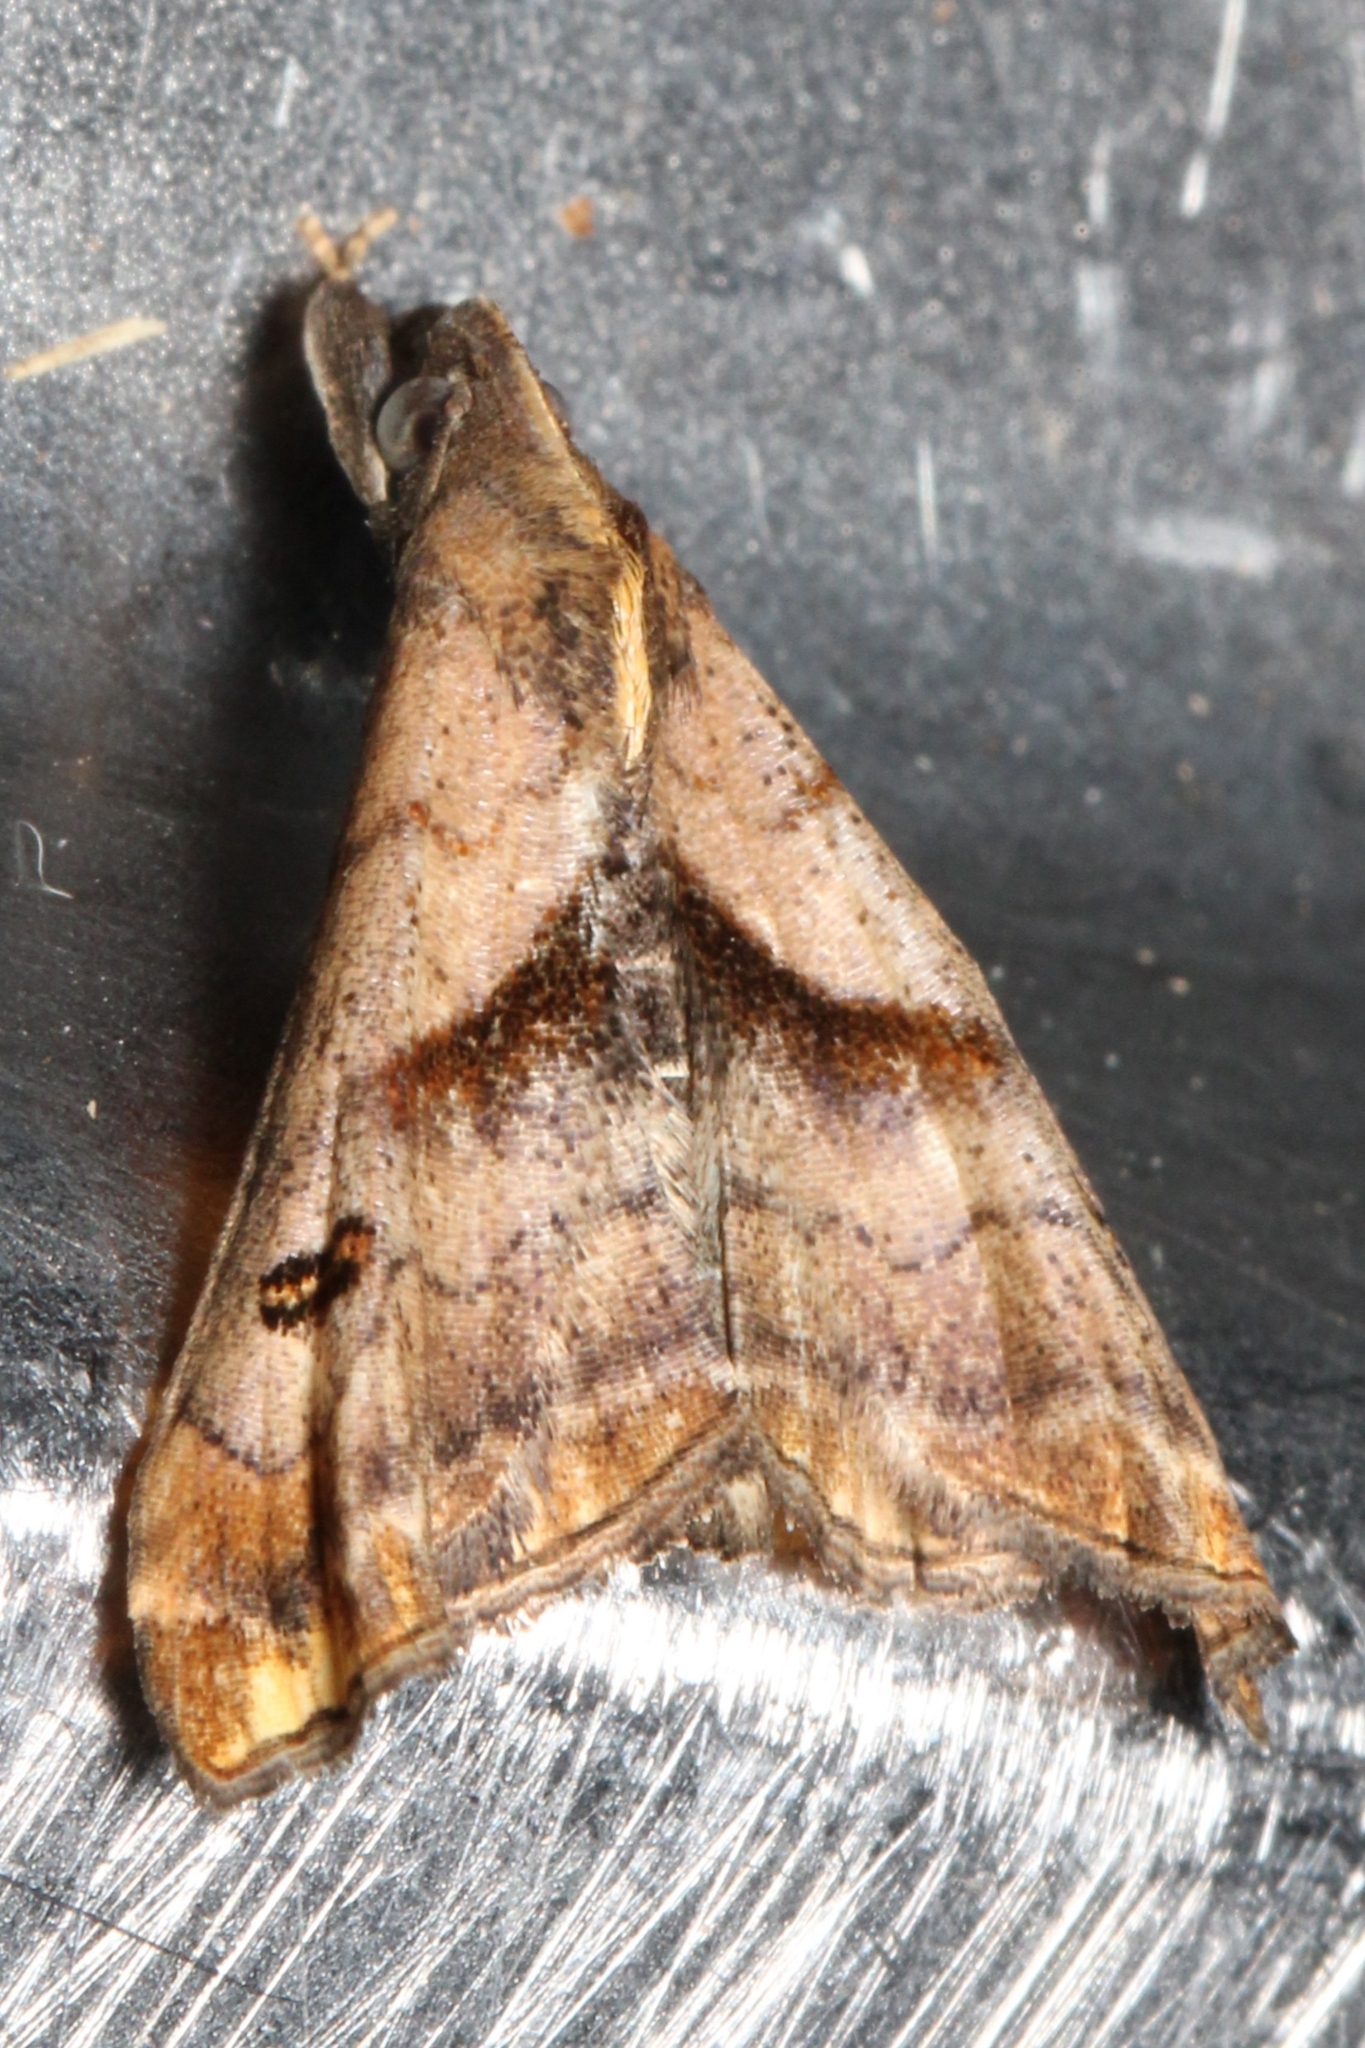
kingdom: Animalia
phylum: Arthropoda
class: Insecta
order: Lepidoptera
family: Erebidae
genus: Palthis
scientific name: Palthis angulalis
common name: Dark-spotted palthis moth
